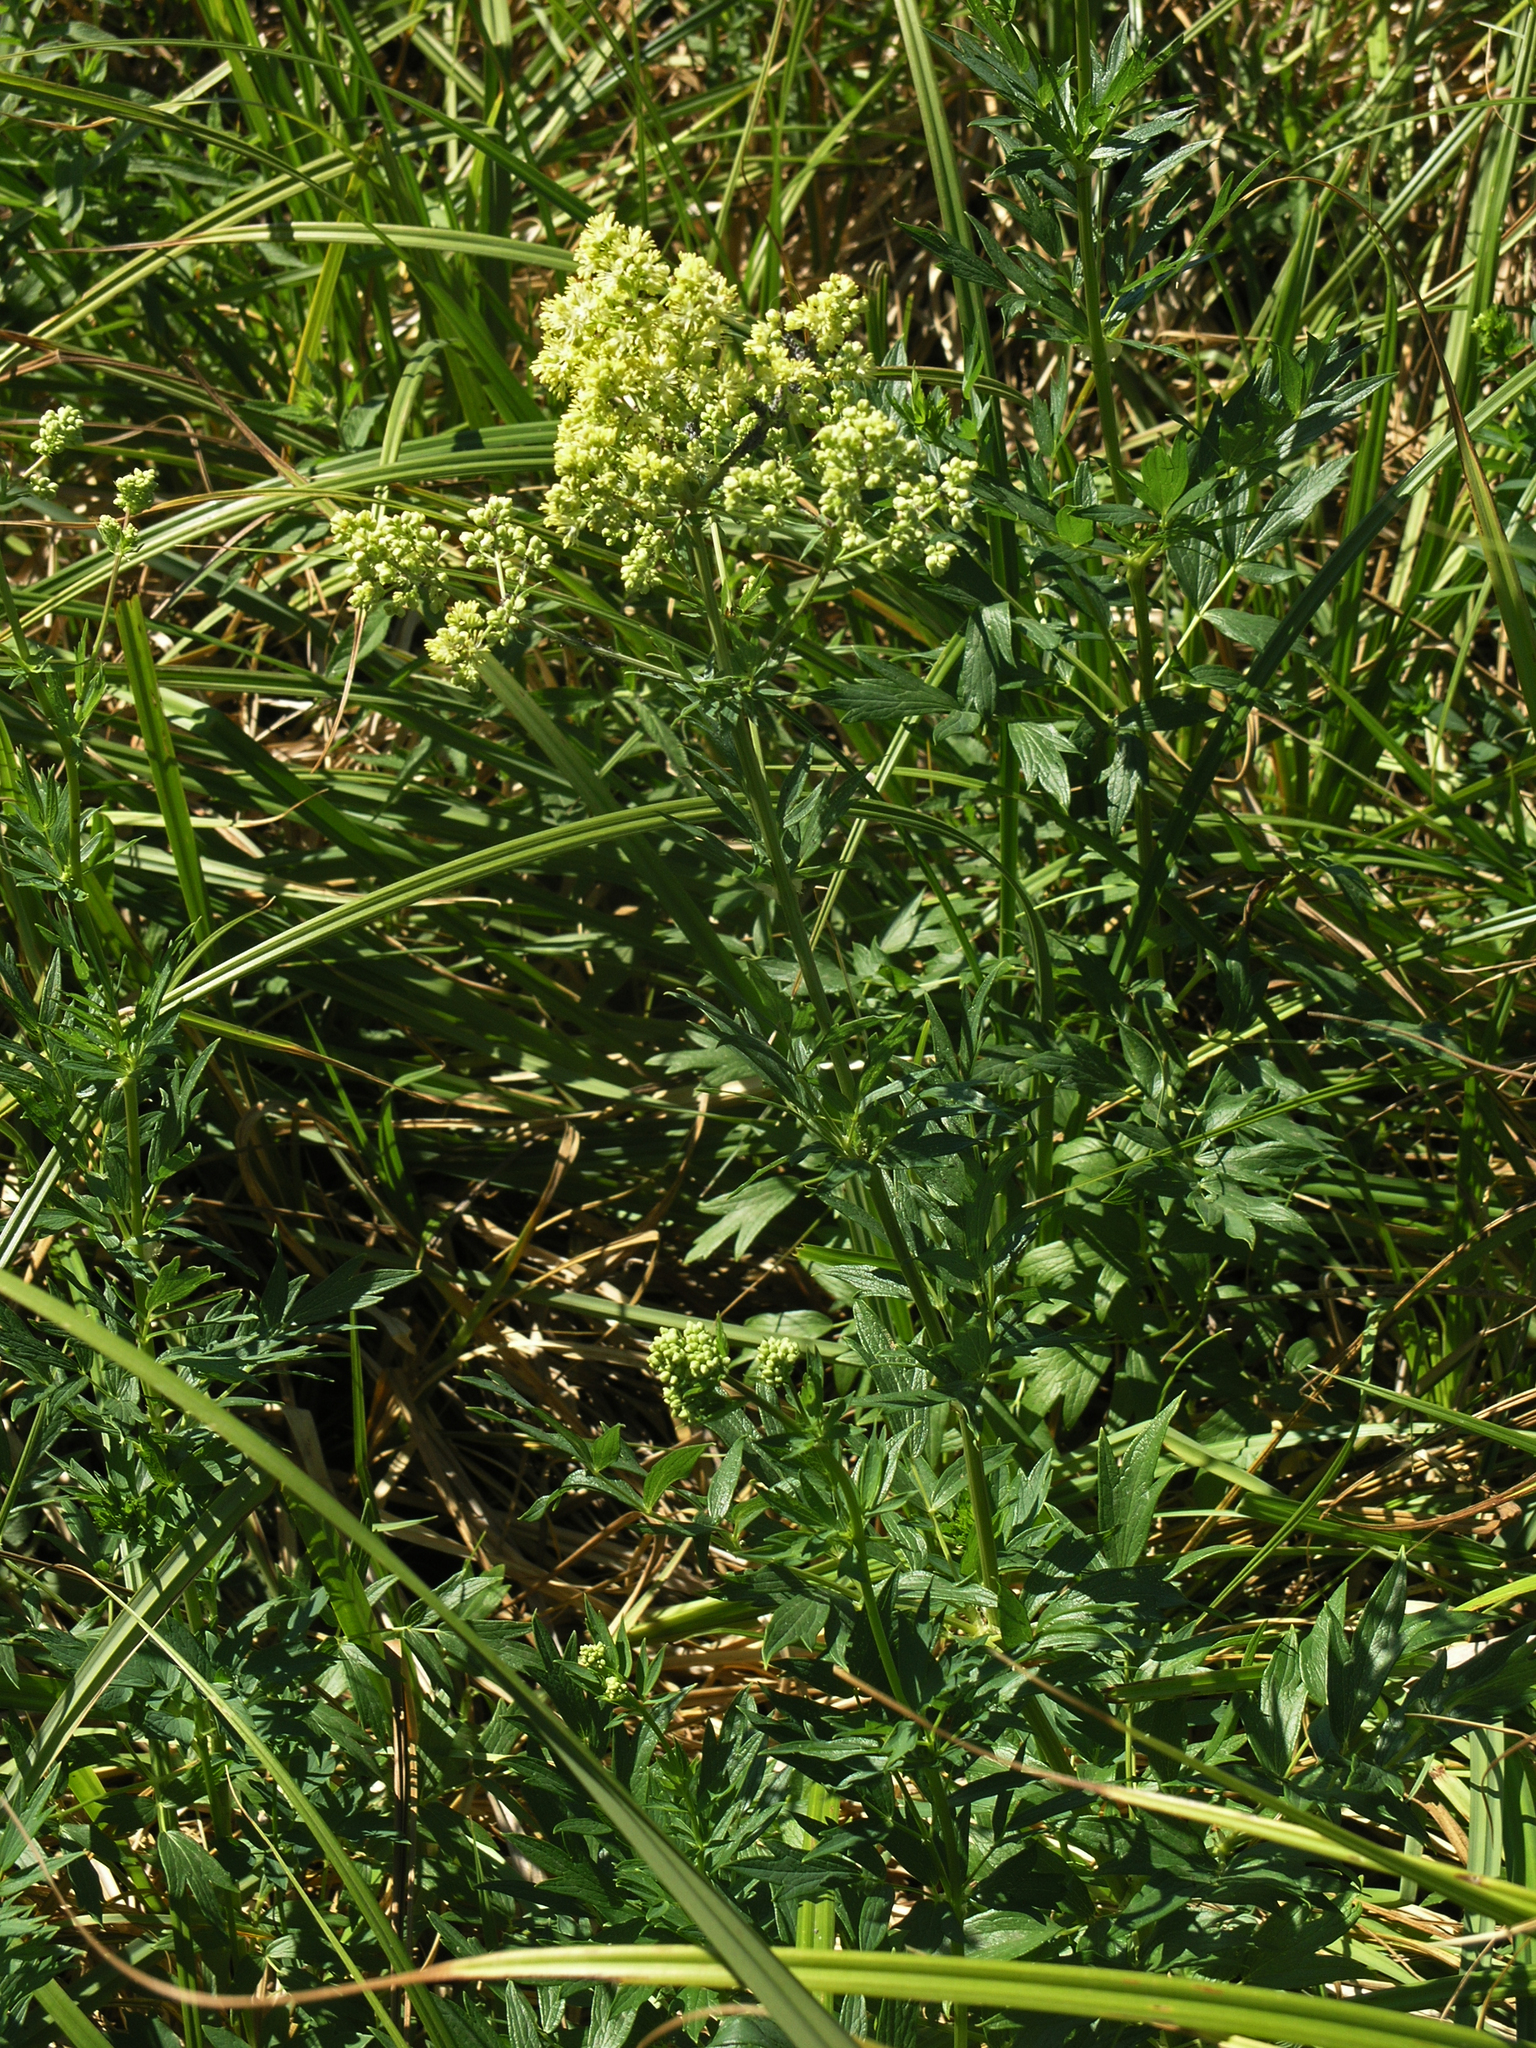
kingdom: Plantae
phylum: Tracheophyta
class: Magnoliopsida
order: Ranunculales
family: Ranunculaceae
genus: Thalictrum
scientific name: Thalictrum flavum
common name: Common meadow-rue
